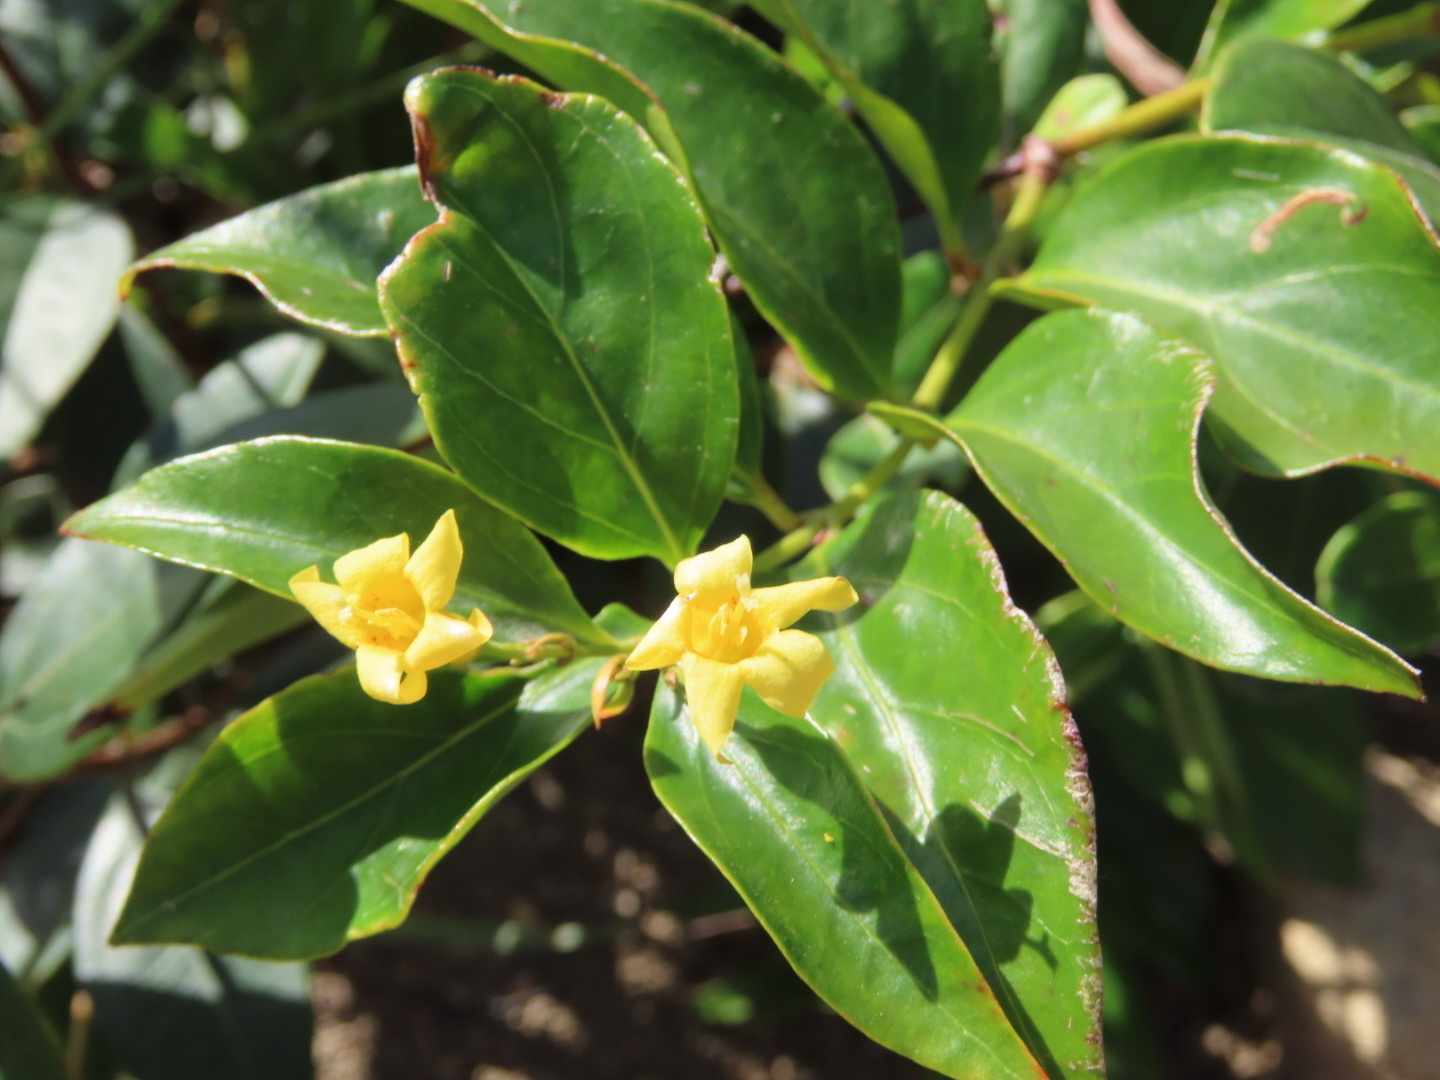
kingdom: Plantae
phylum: Tracheophyta
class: Magnoliopsida
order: Gentianales
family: Gelsemiaceae
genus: Gelsemium
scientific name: Gelsemium elegans
